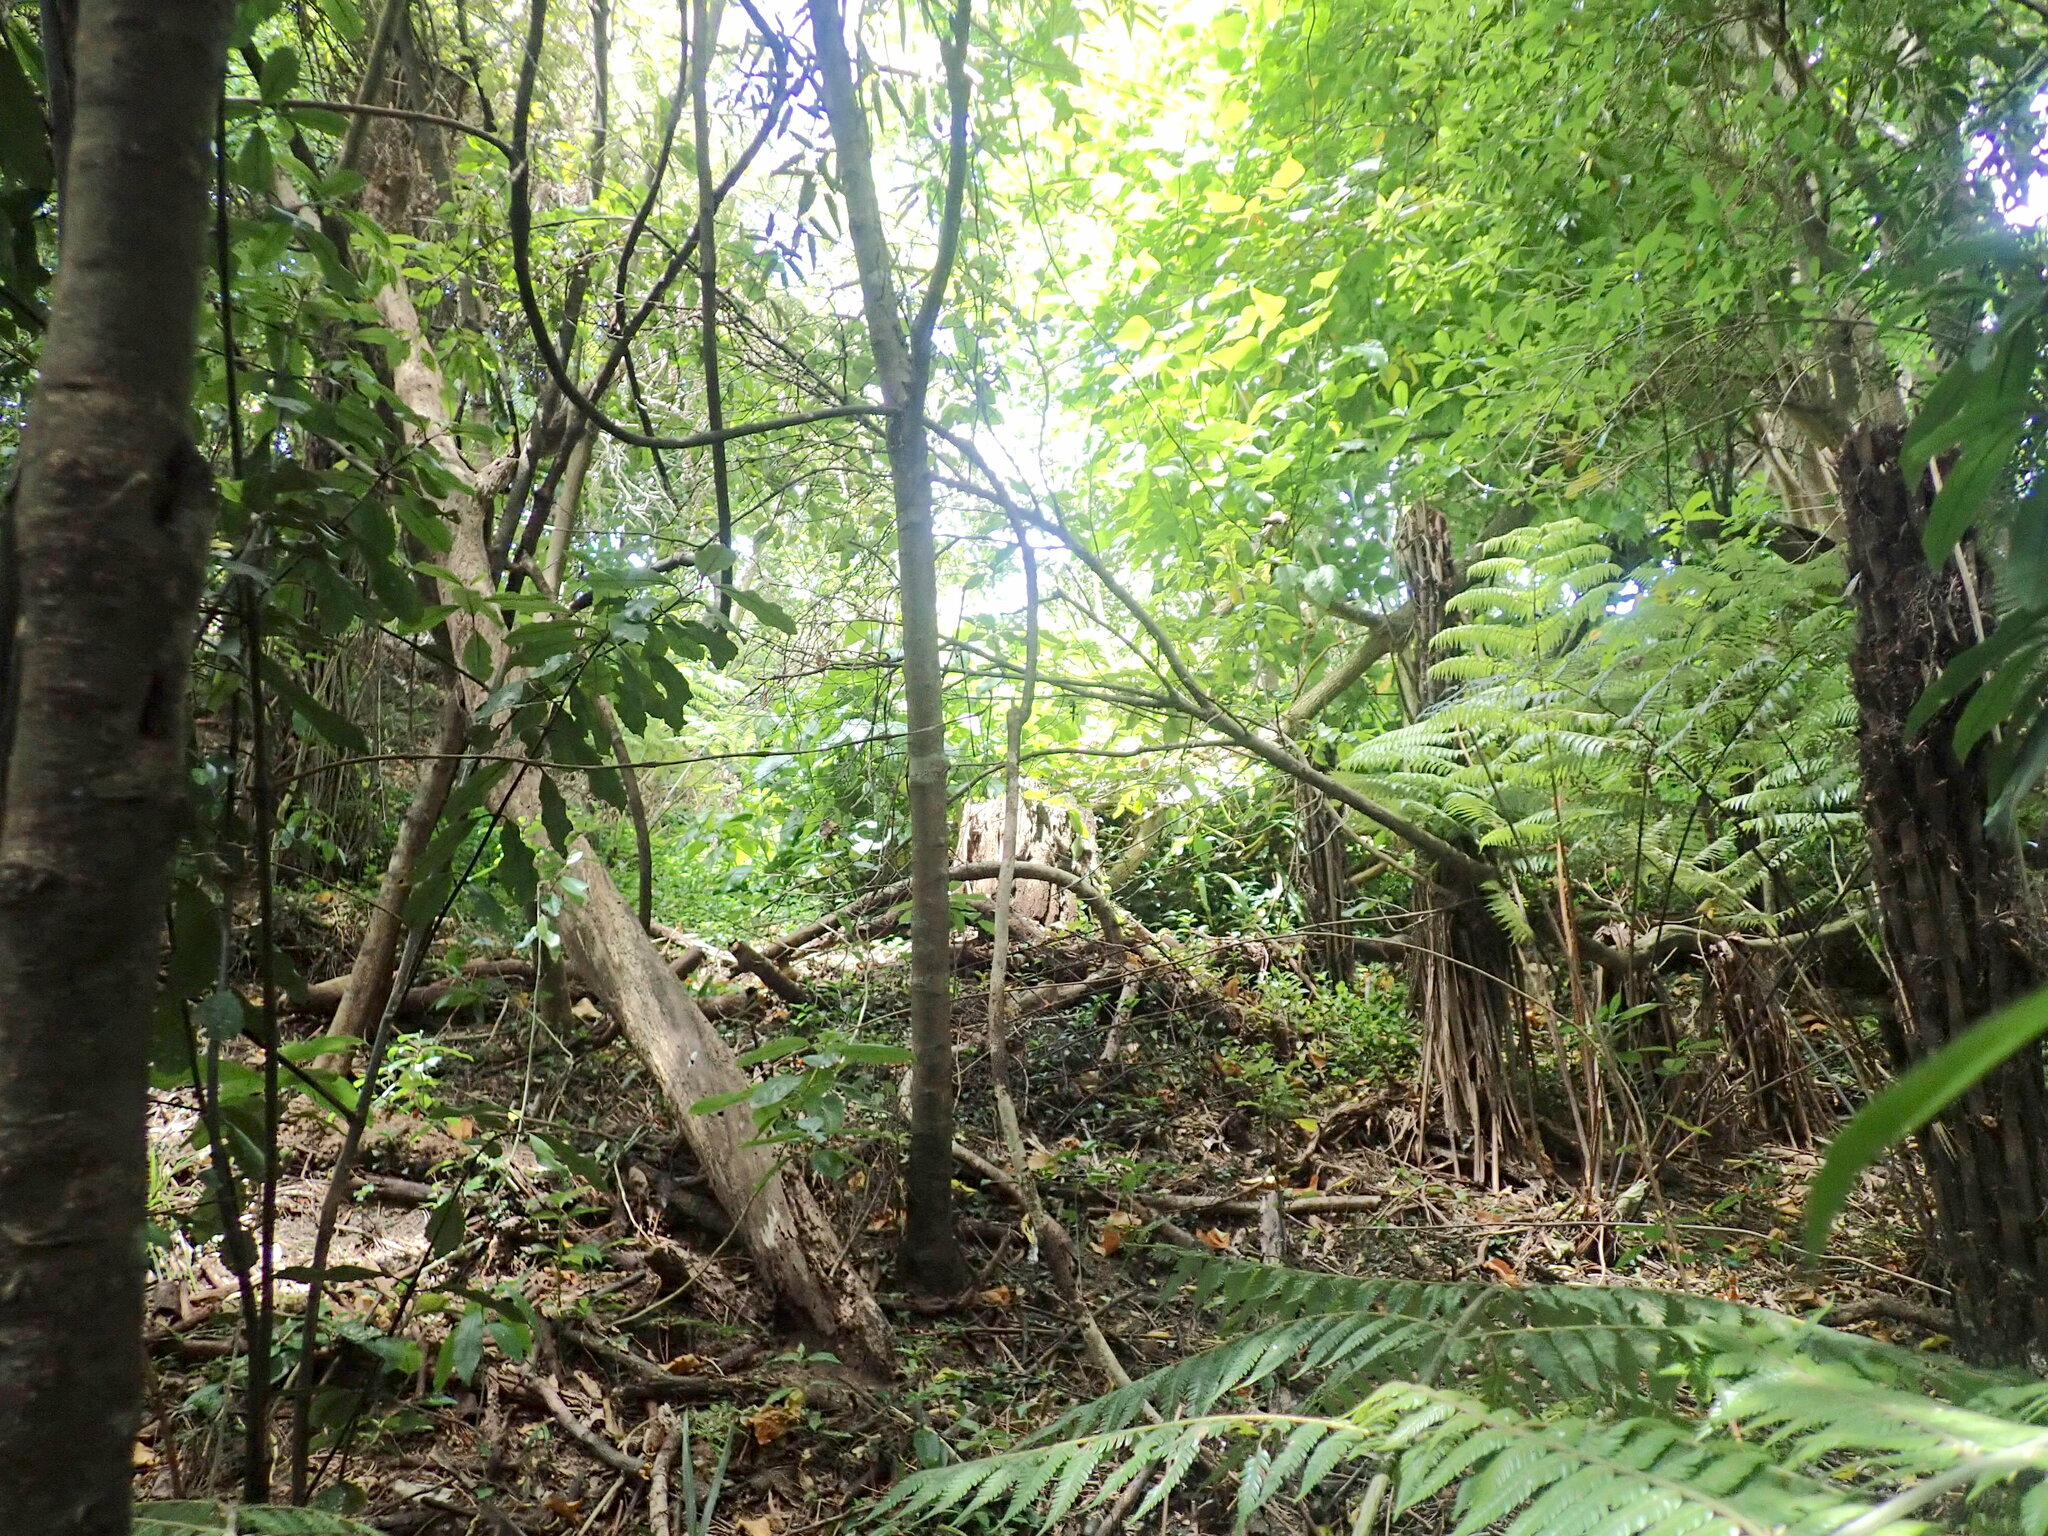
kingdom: Plantae
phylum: Tracheophyta
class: Magnoliopsida
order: Laurales
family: Monimiaceae
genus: Hedycarya
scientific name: Hedycarya arborea
